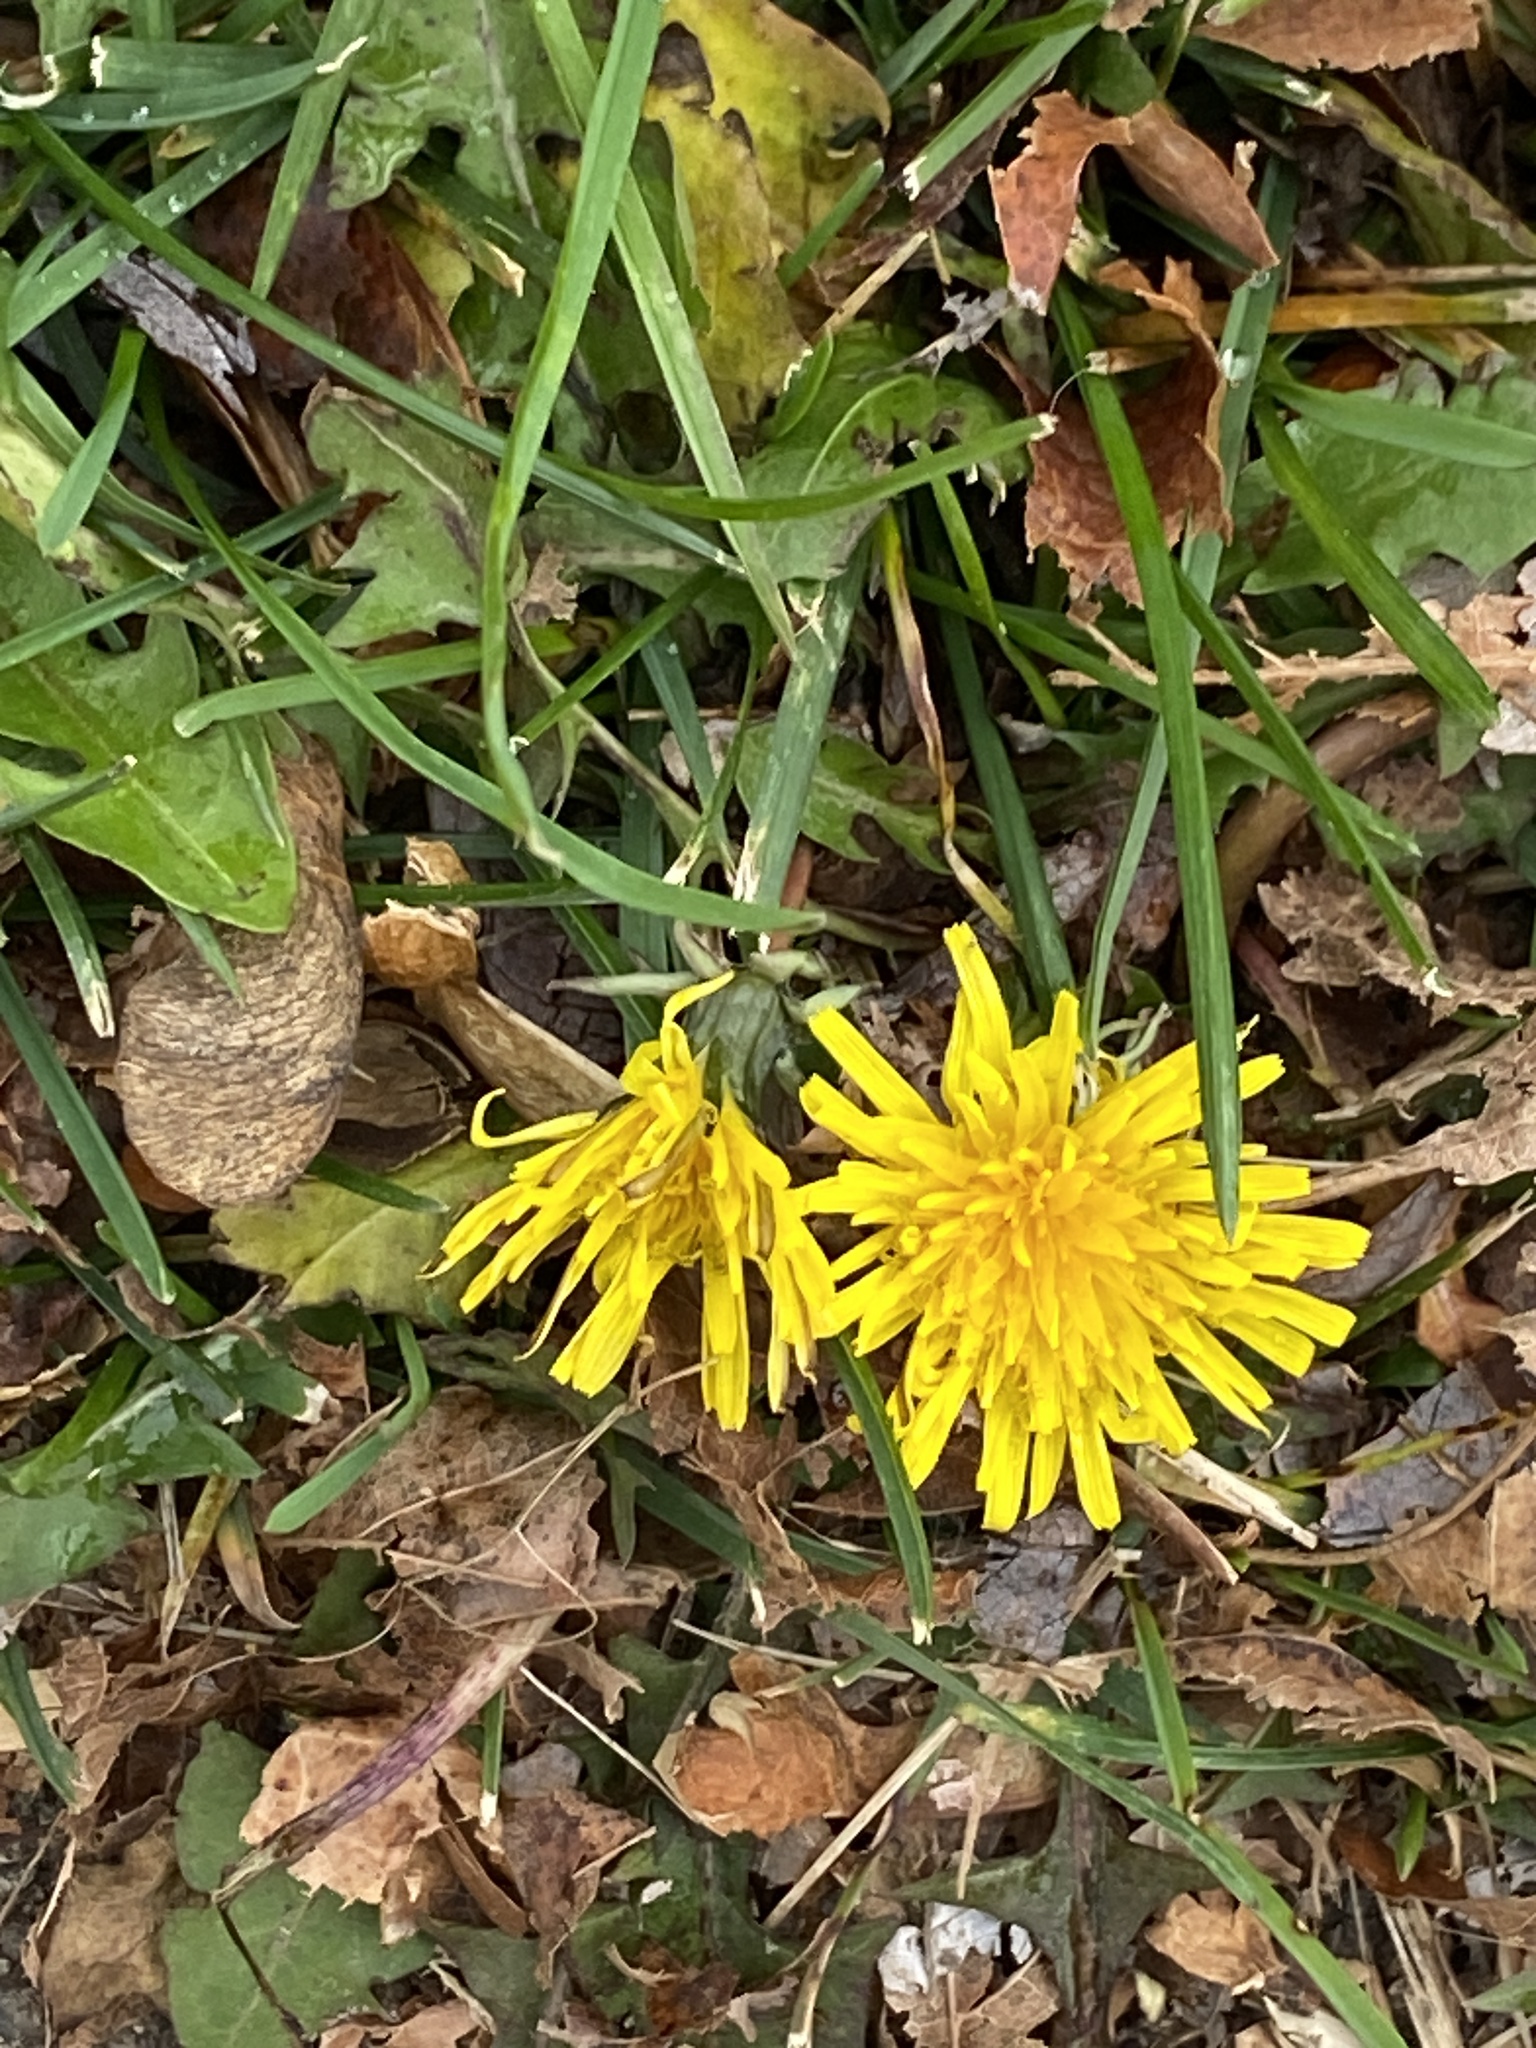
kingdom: Plantae
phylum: Tracheophyta
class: Magnoliopsida
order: Asterales
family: Asteraceae
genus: Taraxacum
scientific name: Taraxacum
